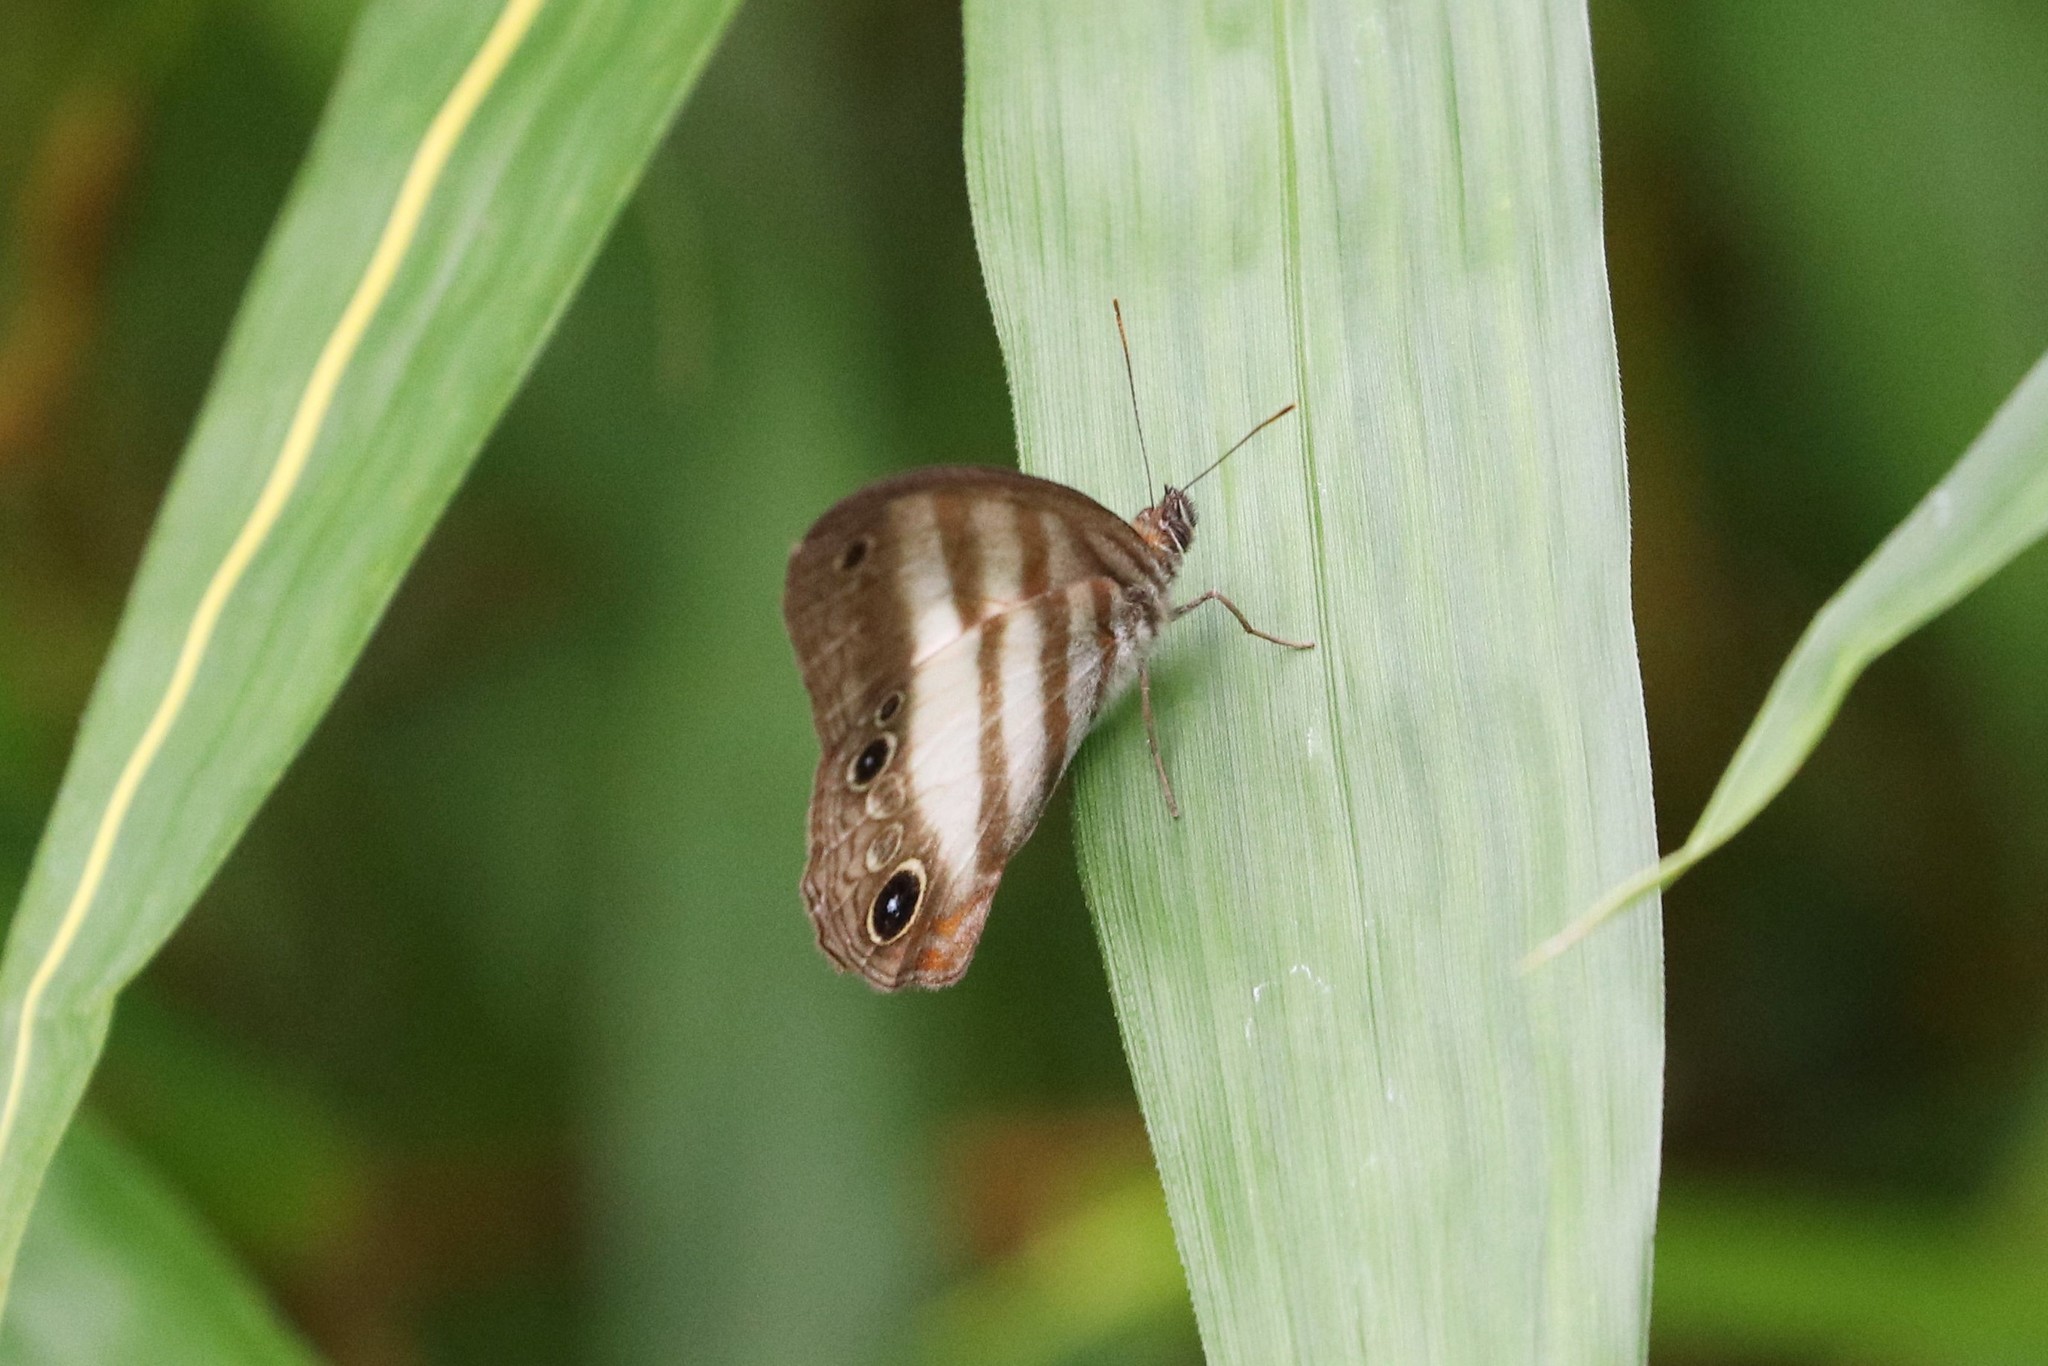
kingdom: Animalia
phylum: Arthropoda
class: Insecta
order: Lepidoptera
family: Nymphalidae
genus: Pareuptychia
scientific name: Pareuptychia hesione
